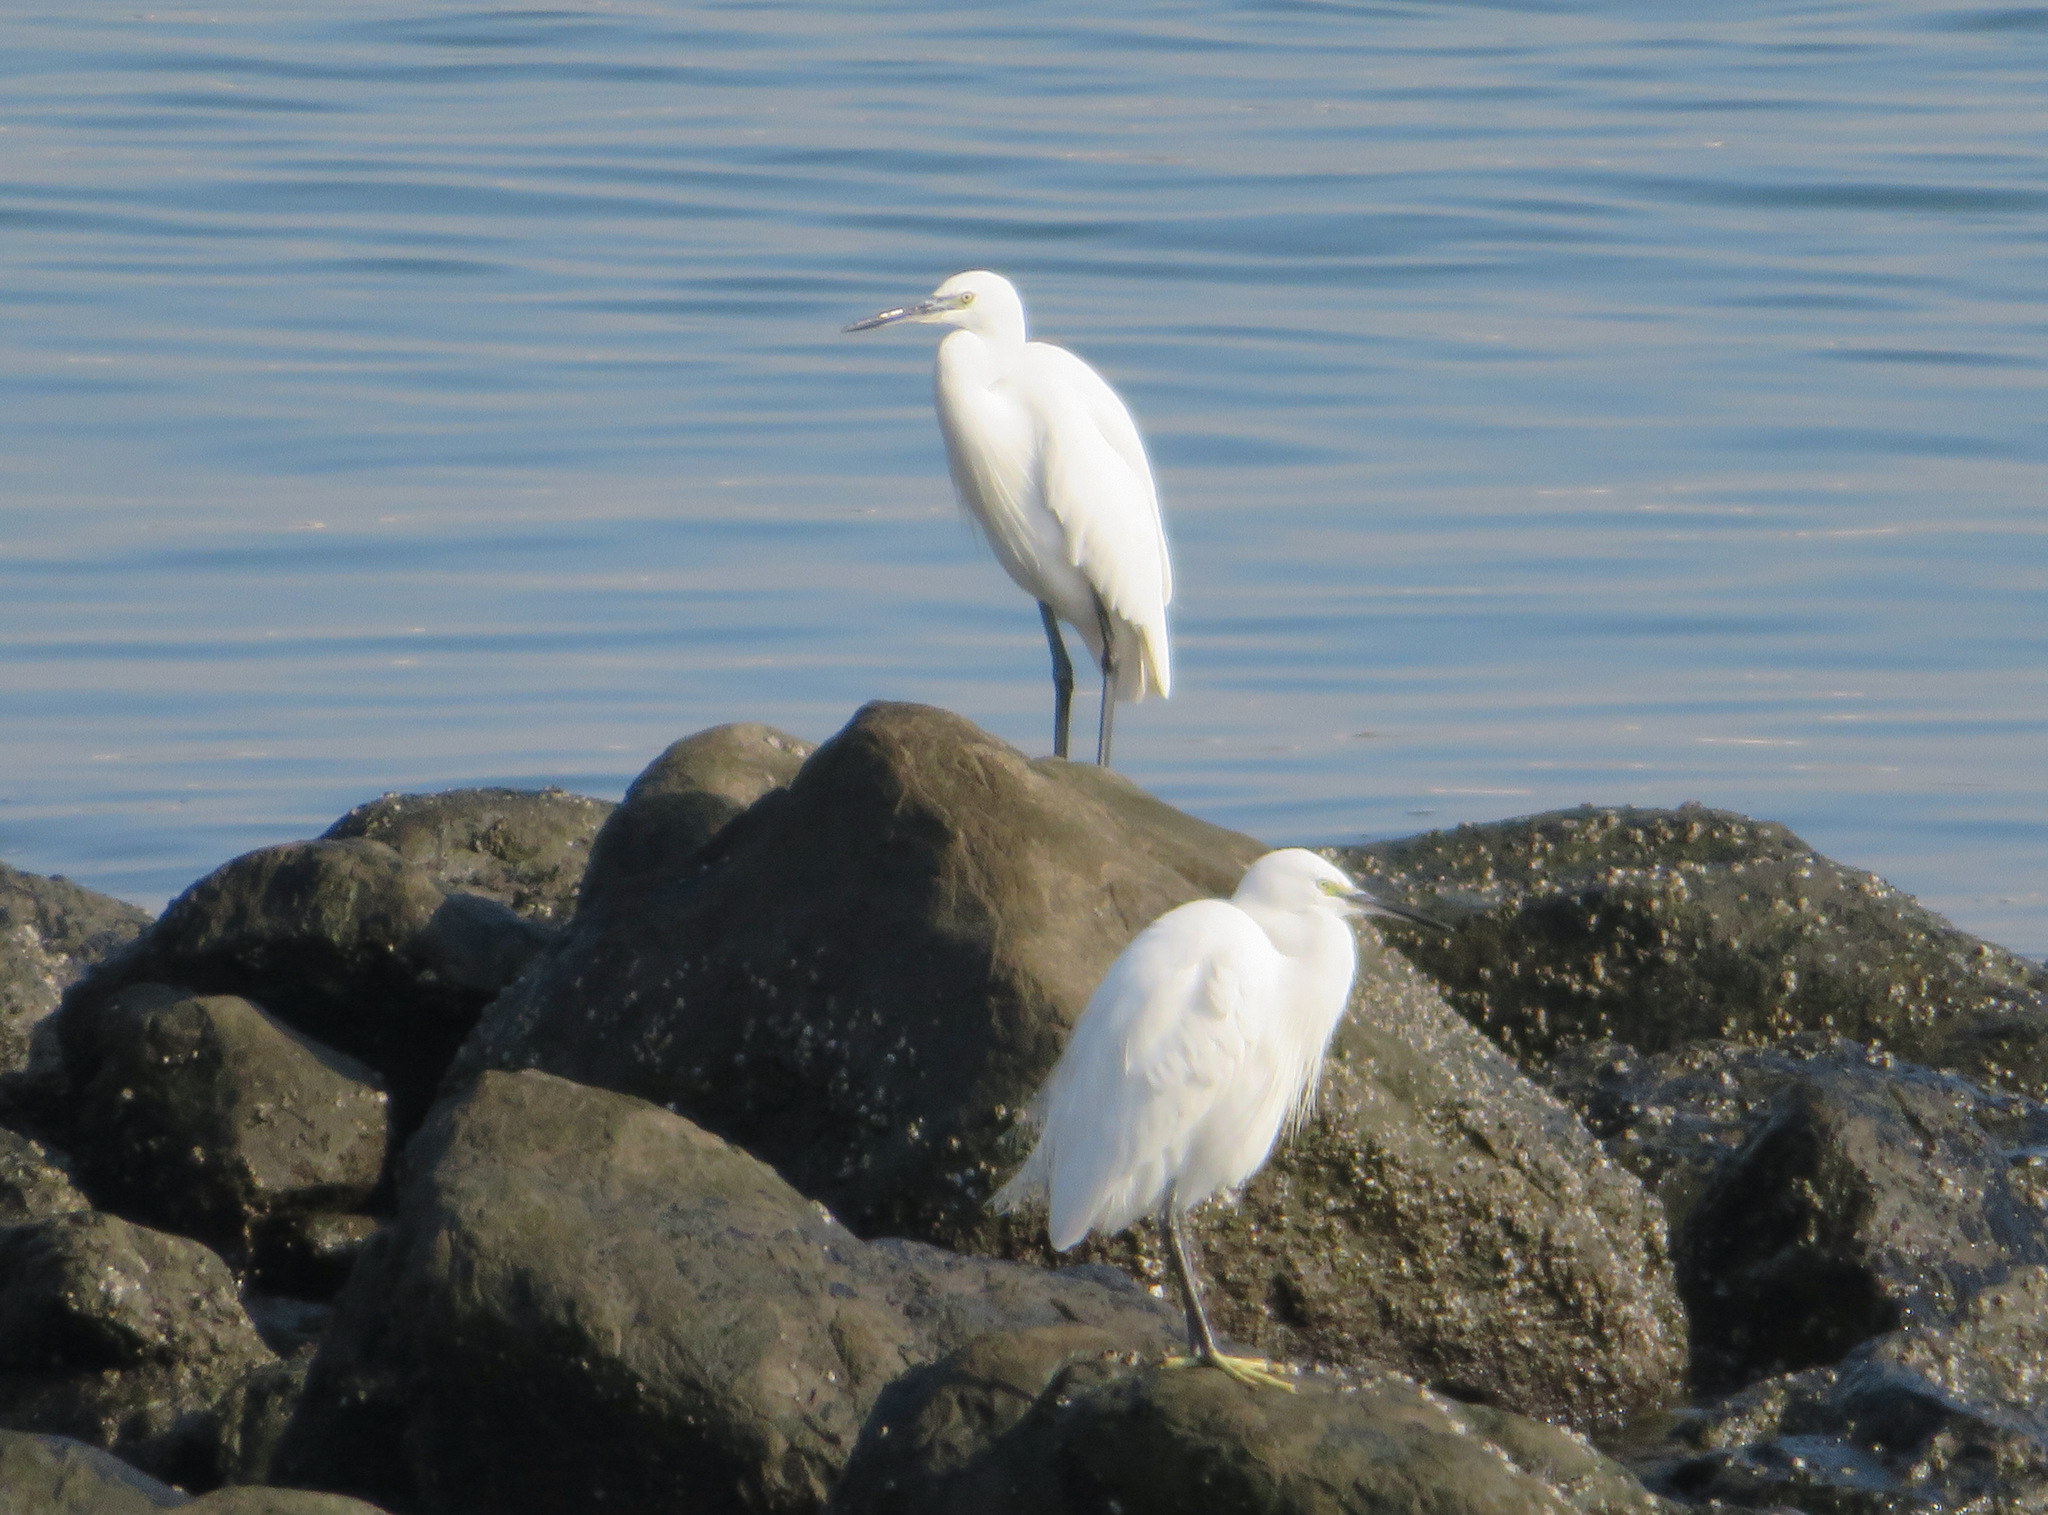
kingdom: Animalia
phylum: Chordata
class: Aves
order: Pelecaniformes
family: Ardeidae
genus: Egretta
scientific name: Egretta garzetta
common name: Little egret
